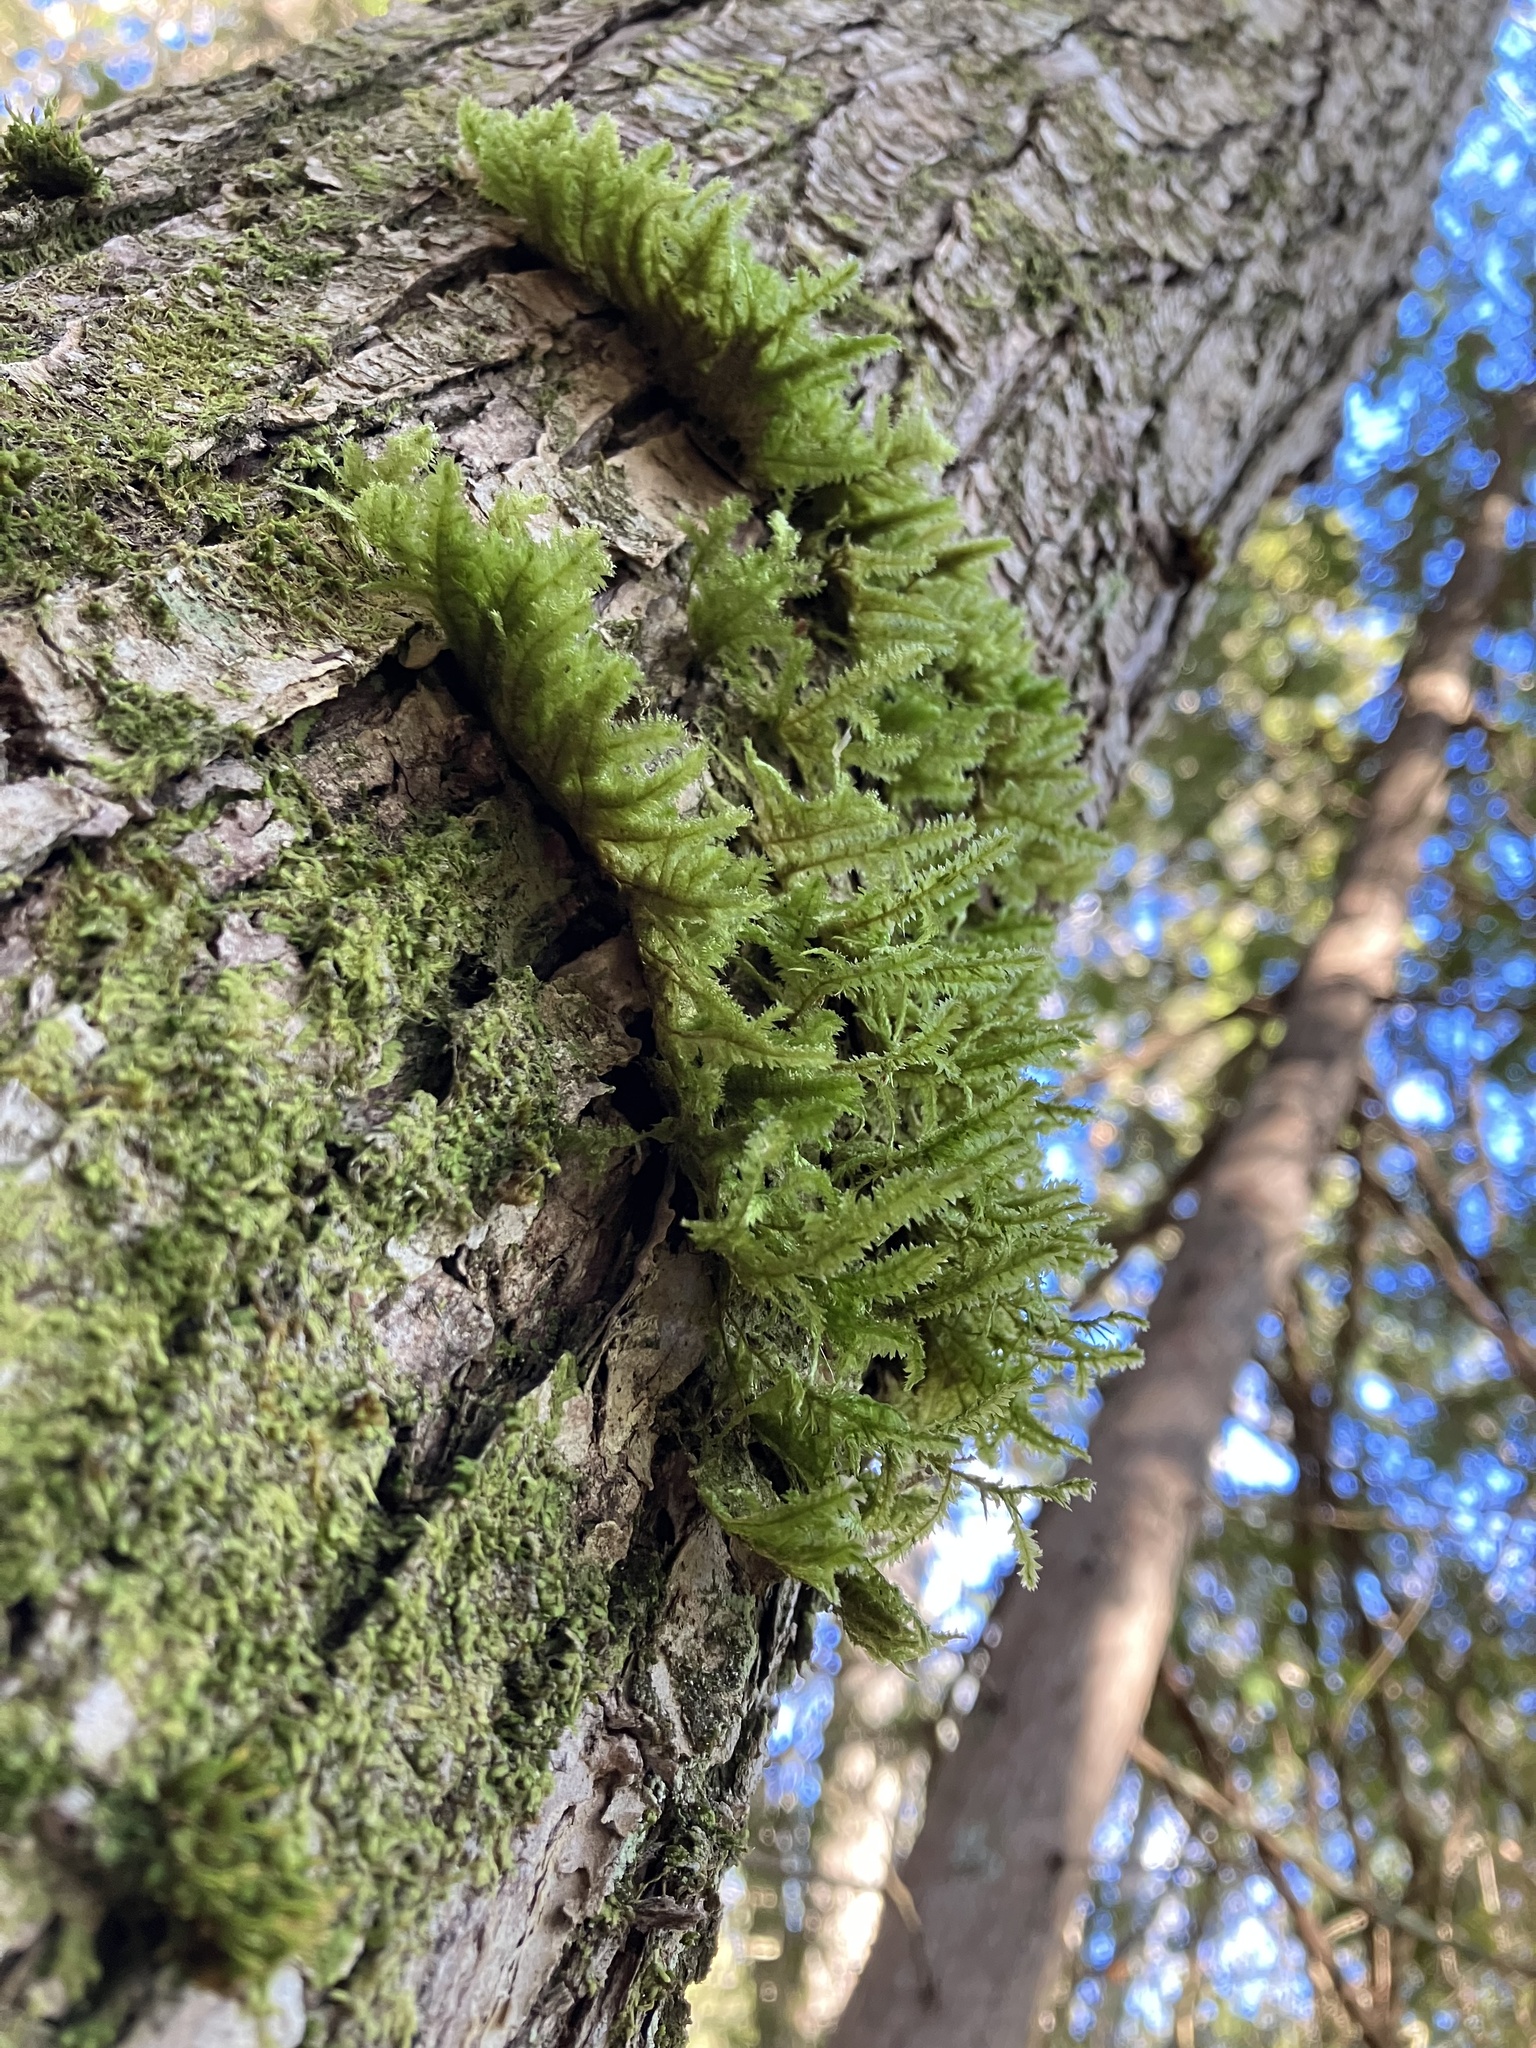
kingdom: Plantae
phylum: Bryophyta
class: Bryopsida
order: Hypnales
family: Neckeraceae
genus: Neckera
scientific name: Neckera pennata
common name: Feathery neckera
